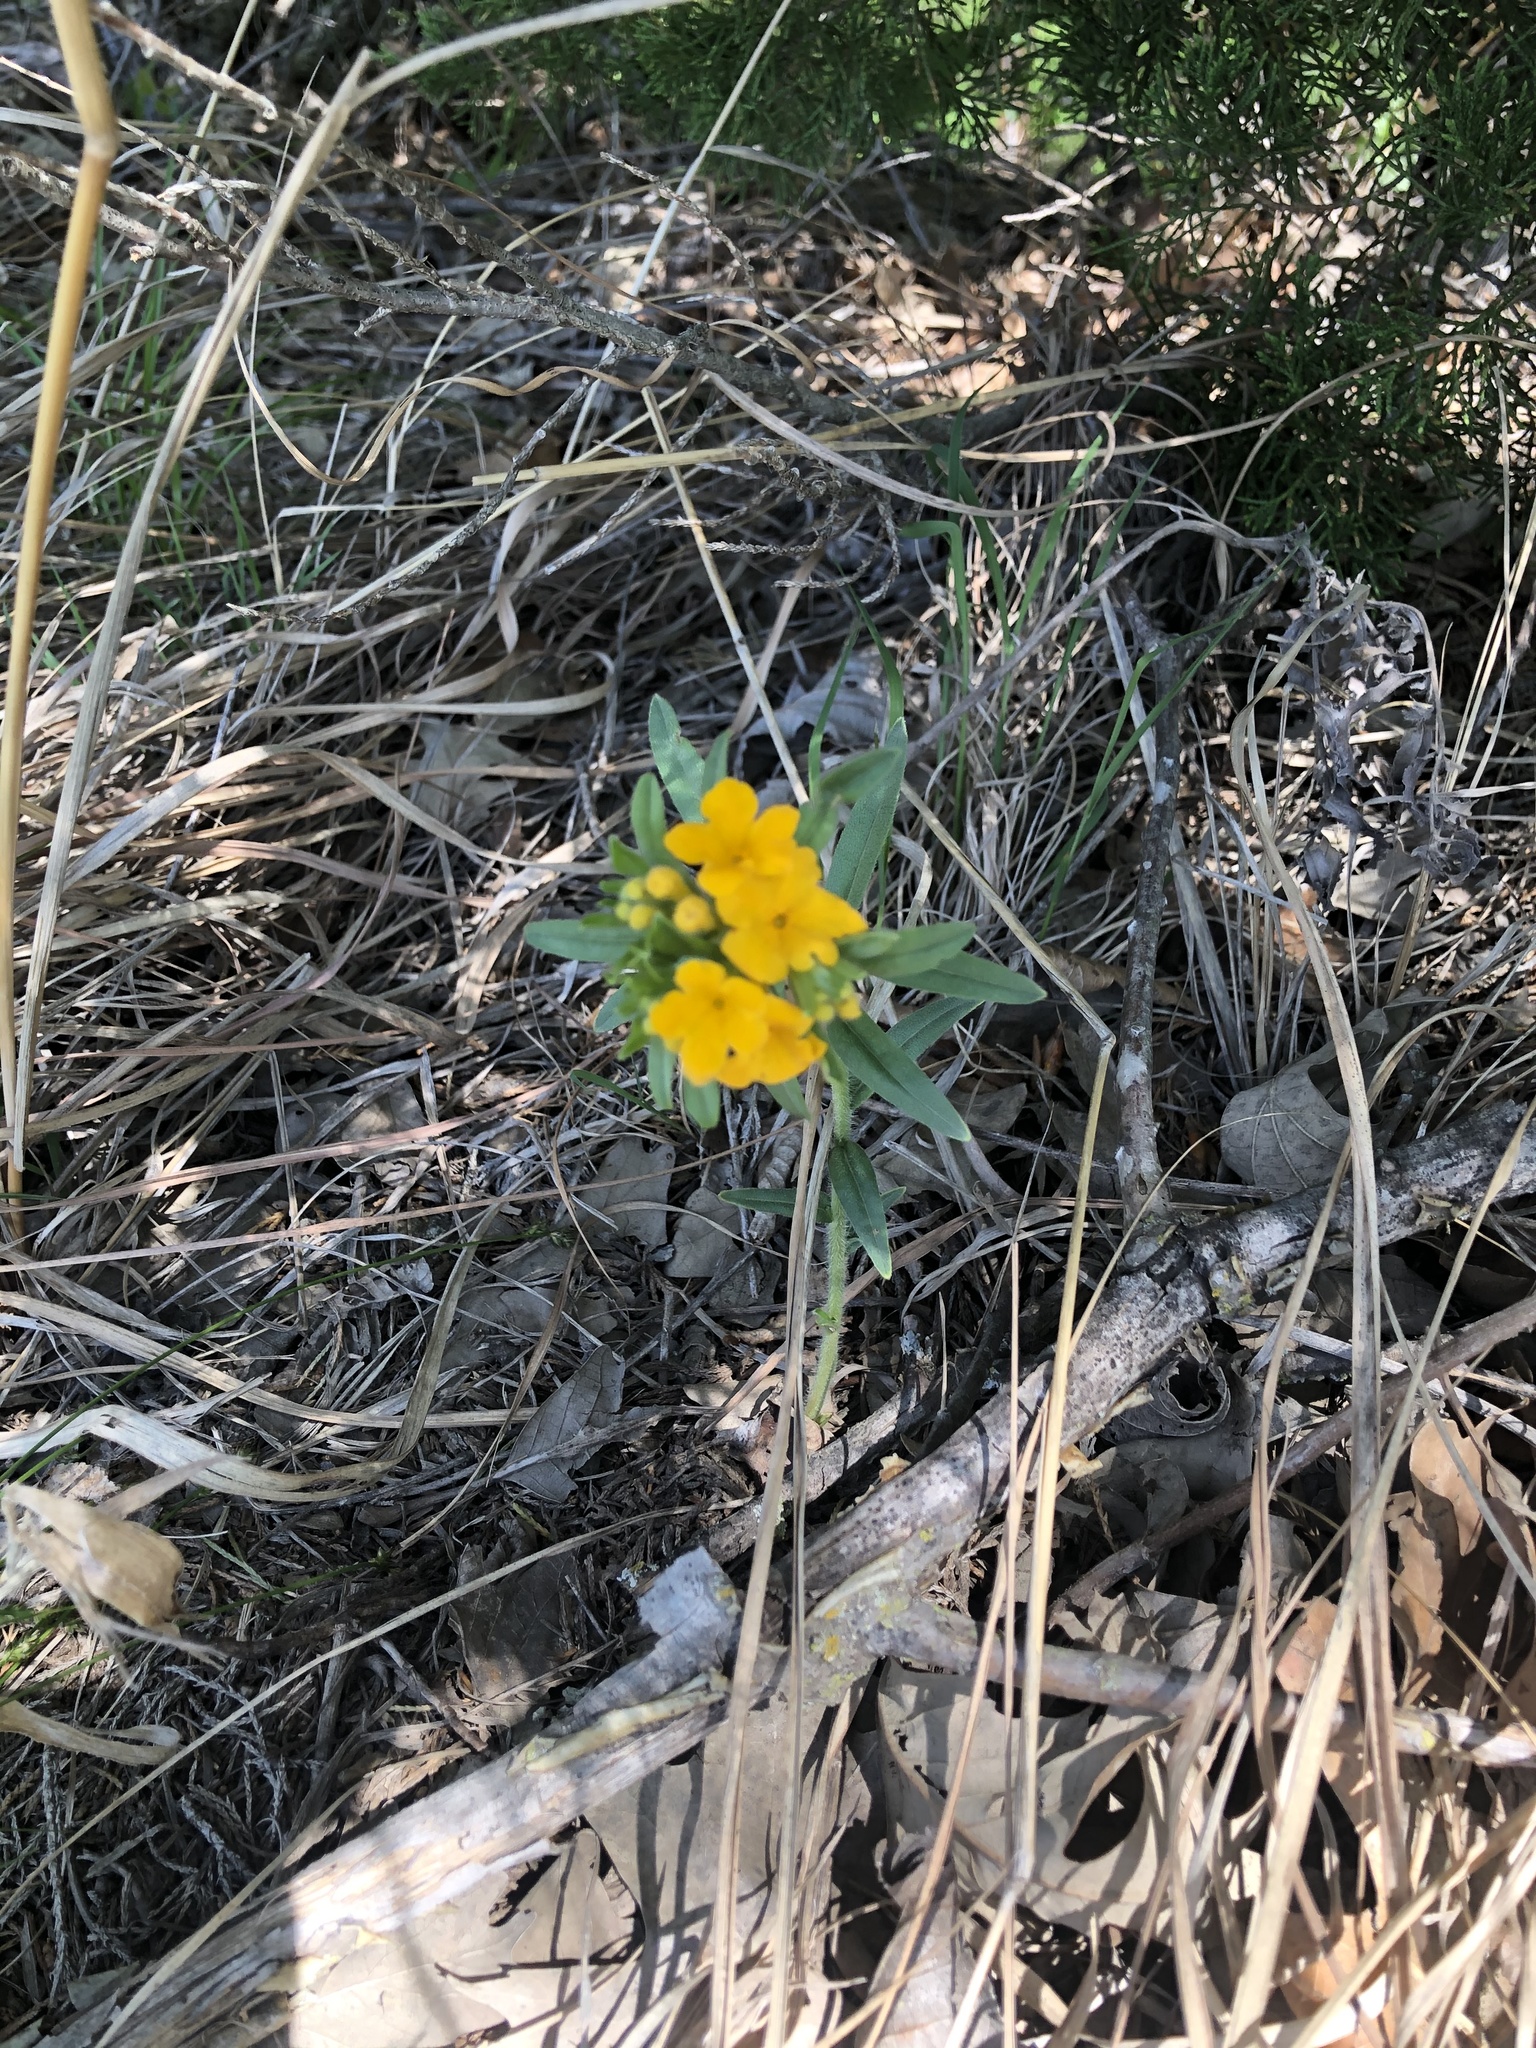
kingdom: Plantae
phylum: Tracheophyta
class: Magnoliopsida
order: Boraginales
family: Boraginaceae
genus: Lithospermum
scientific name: Lithospermum canescens
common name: Hoary puccoon
